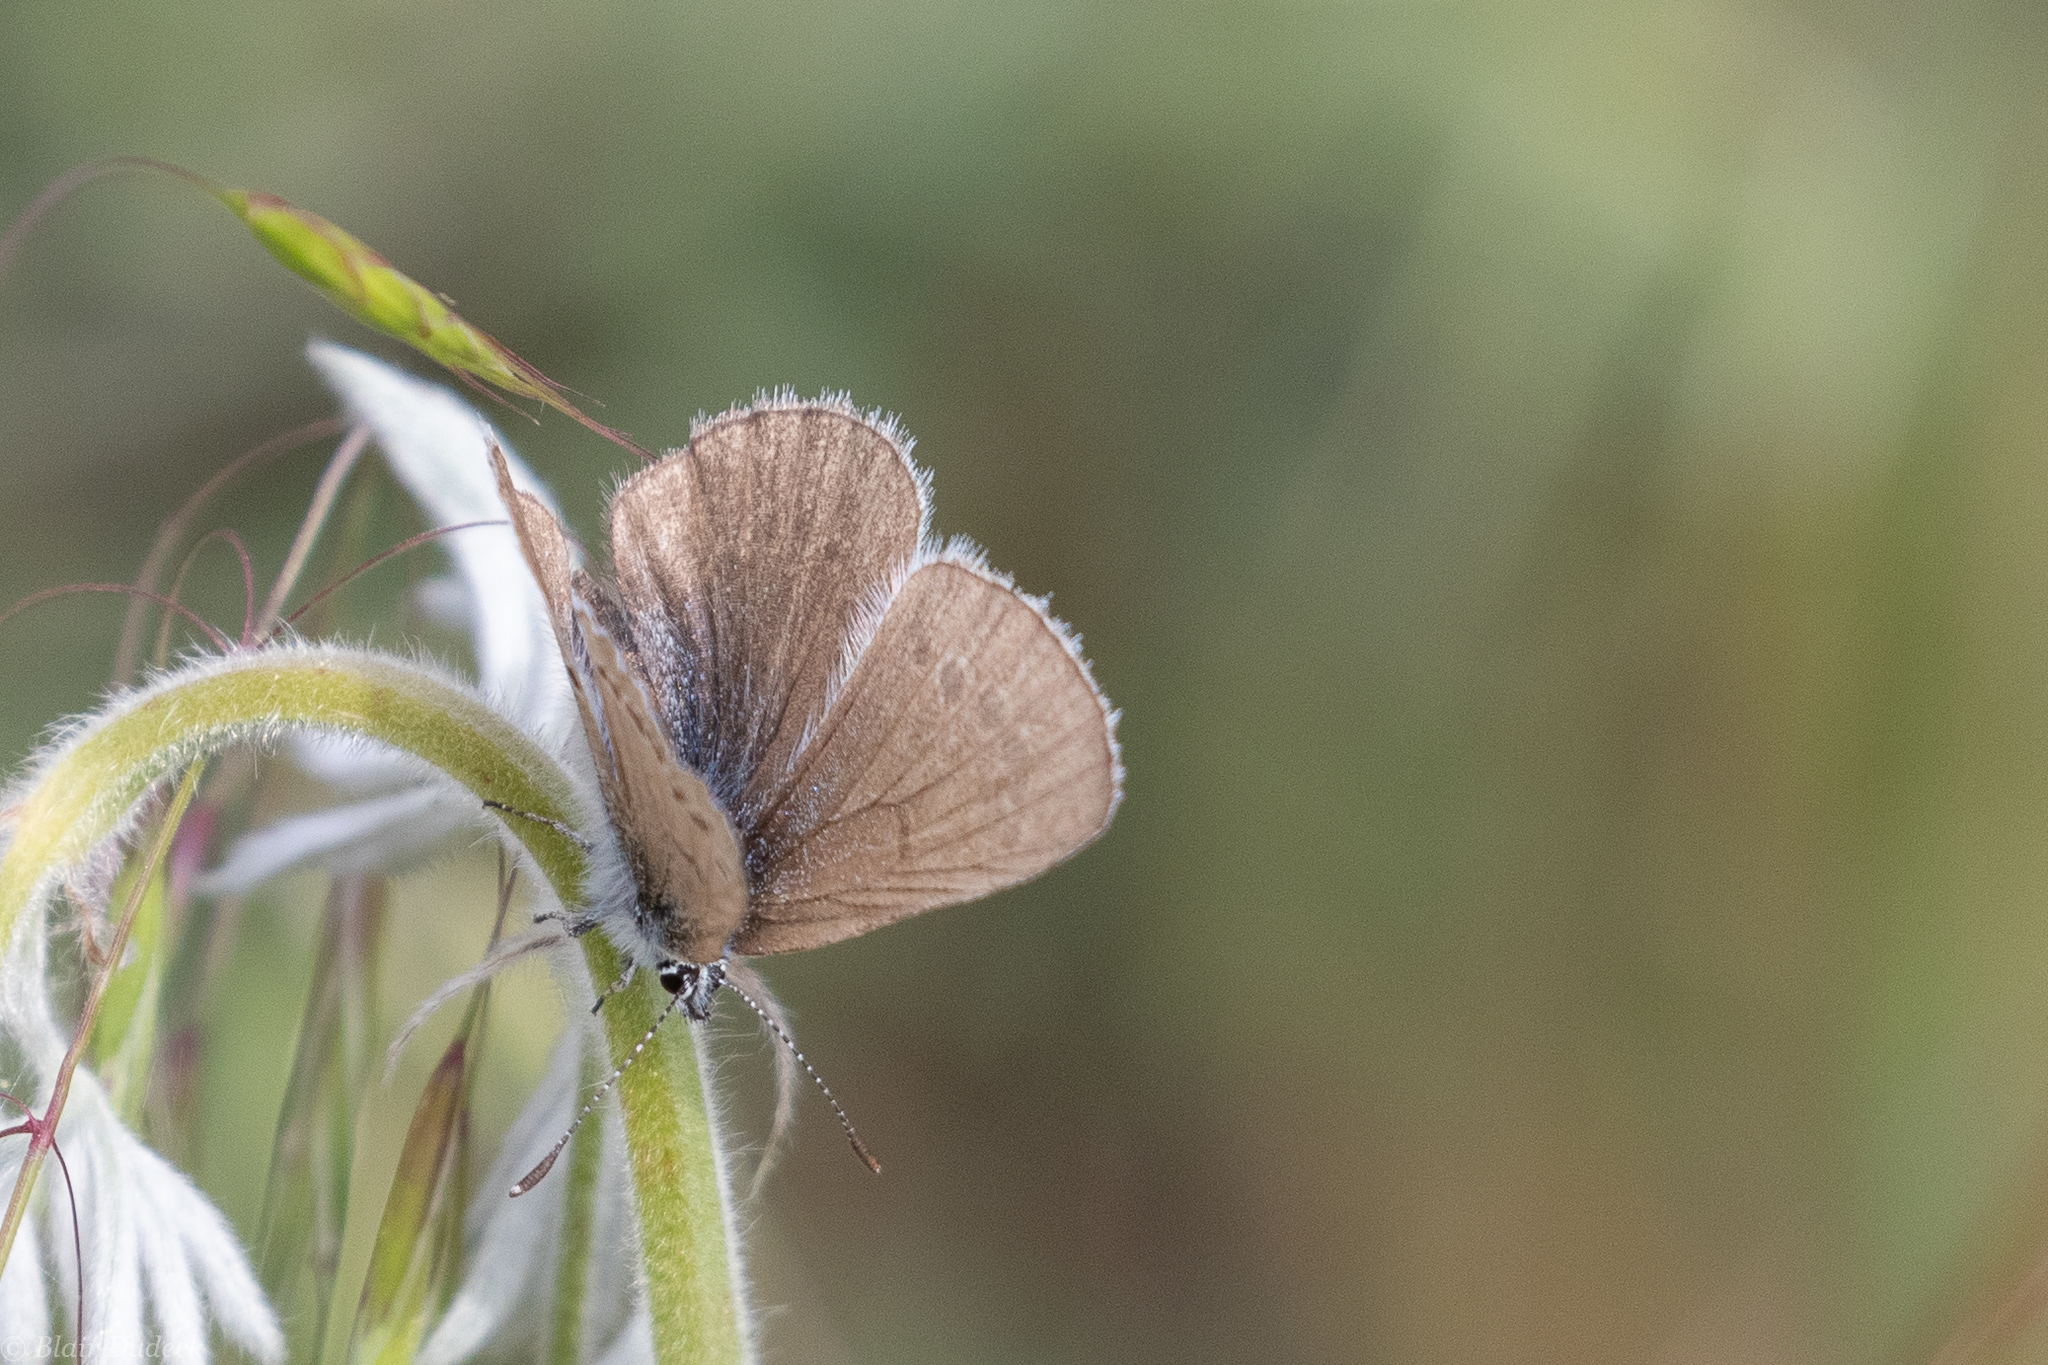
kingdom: Animalia
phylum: Arthropoda
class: Insecta
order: Lepidoptera
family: Lycaenidae
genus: Glaucopsyche
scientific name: Glaucopsyche lygdamus
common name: Silvery blue
